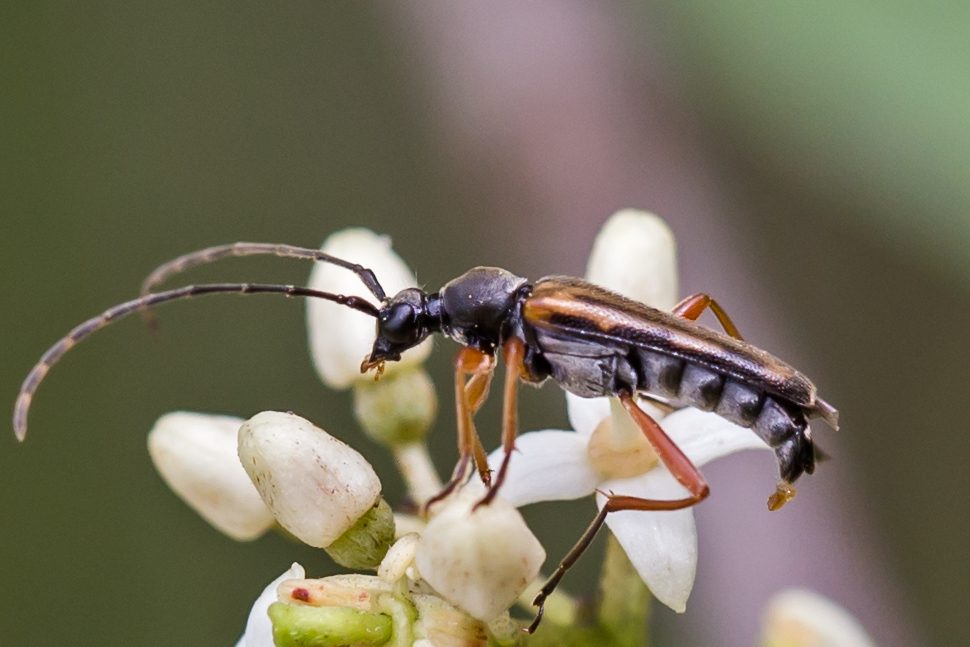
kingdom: Animalia
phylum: Arthropoda
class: Insecta
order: Coleoptera
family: Cerambycidae
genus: Analeptura
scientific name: Analeptura lineola
